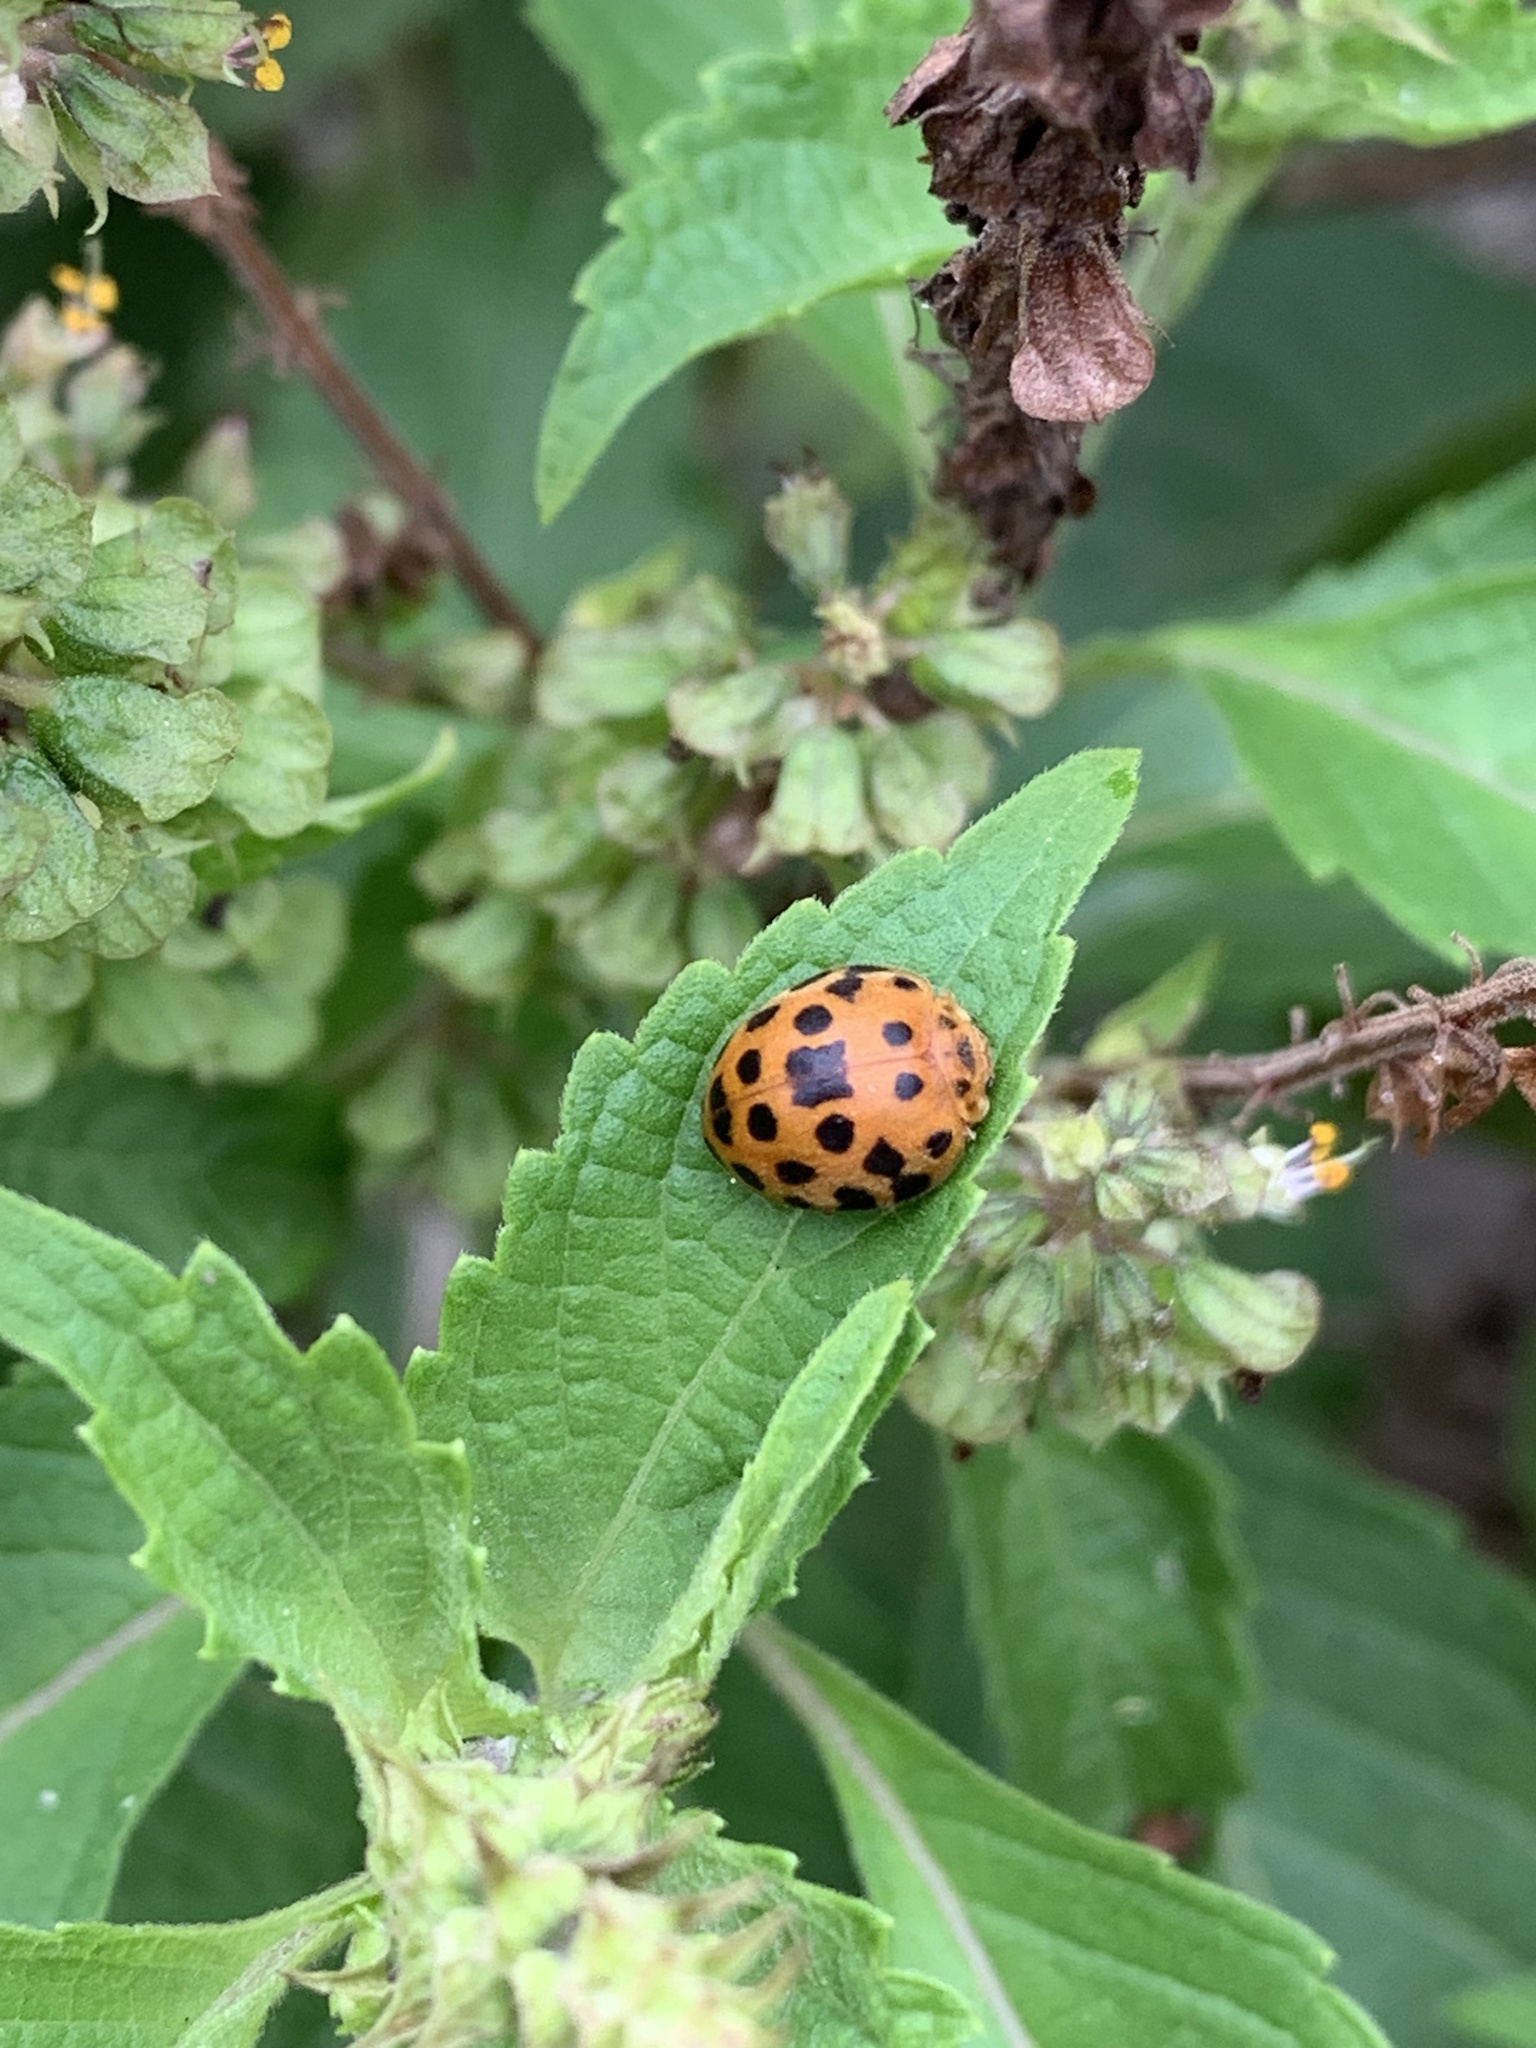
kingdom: Animalia
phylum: Arthropoda
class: Insecta
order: Coleoptera
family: Coccinellidae
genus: Henosepilachna
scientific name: Henosepilachna vigintioctopunctata
